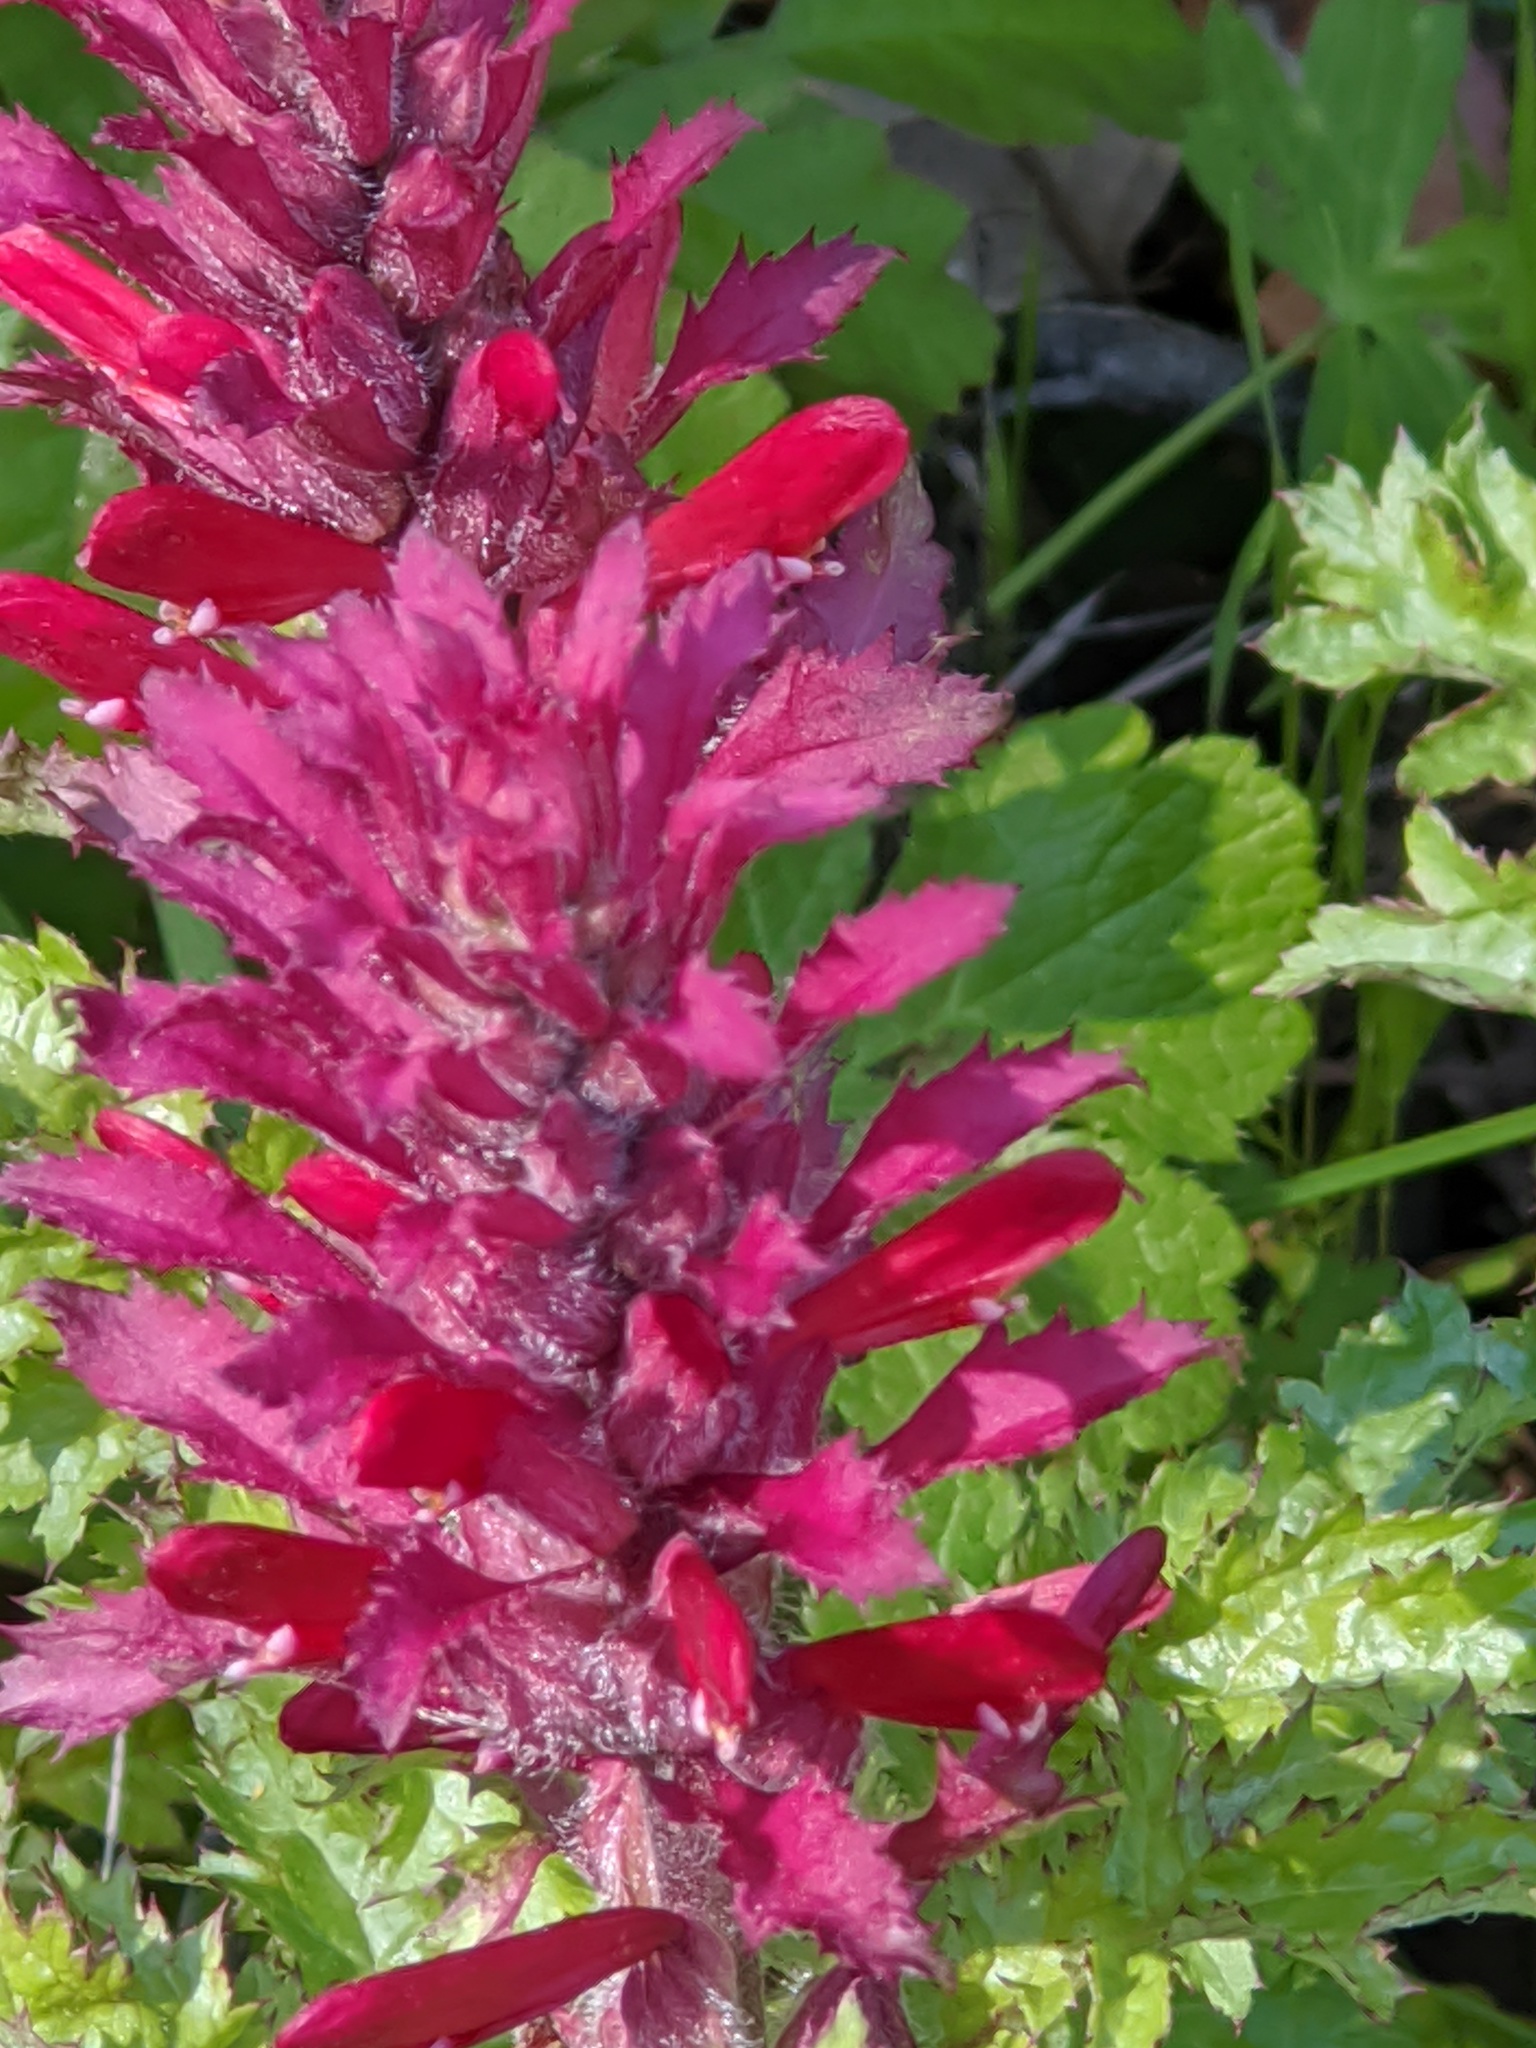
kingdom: Plantae
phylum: Tracheophyta
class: Magnoliopsida
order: Lamiales
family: Orobanchaceae
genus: Pedicularis
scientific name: Pedicularis densiflora
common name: Indian warrior
